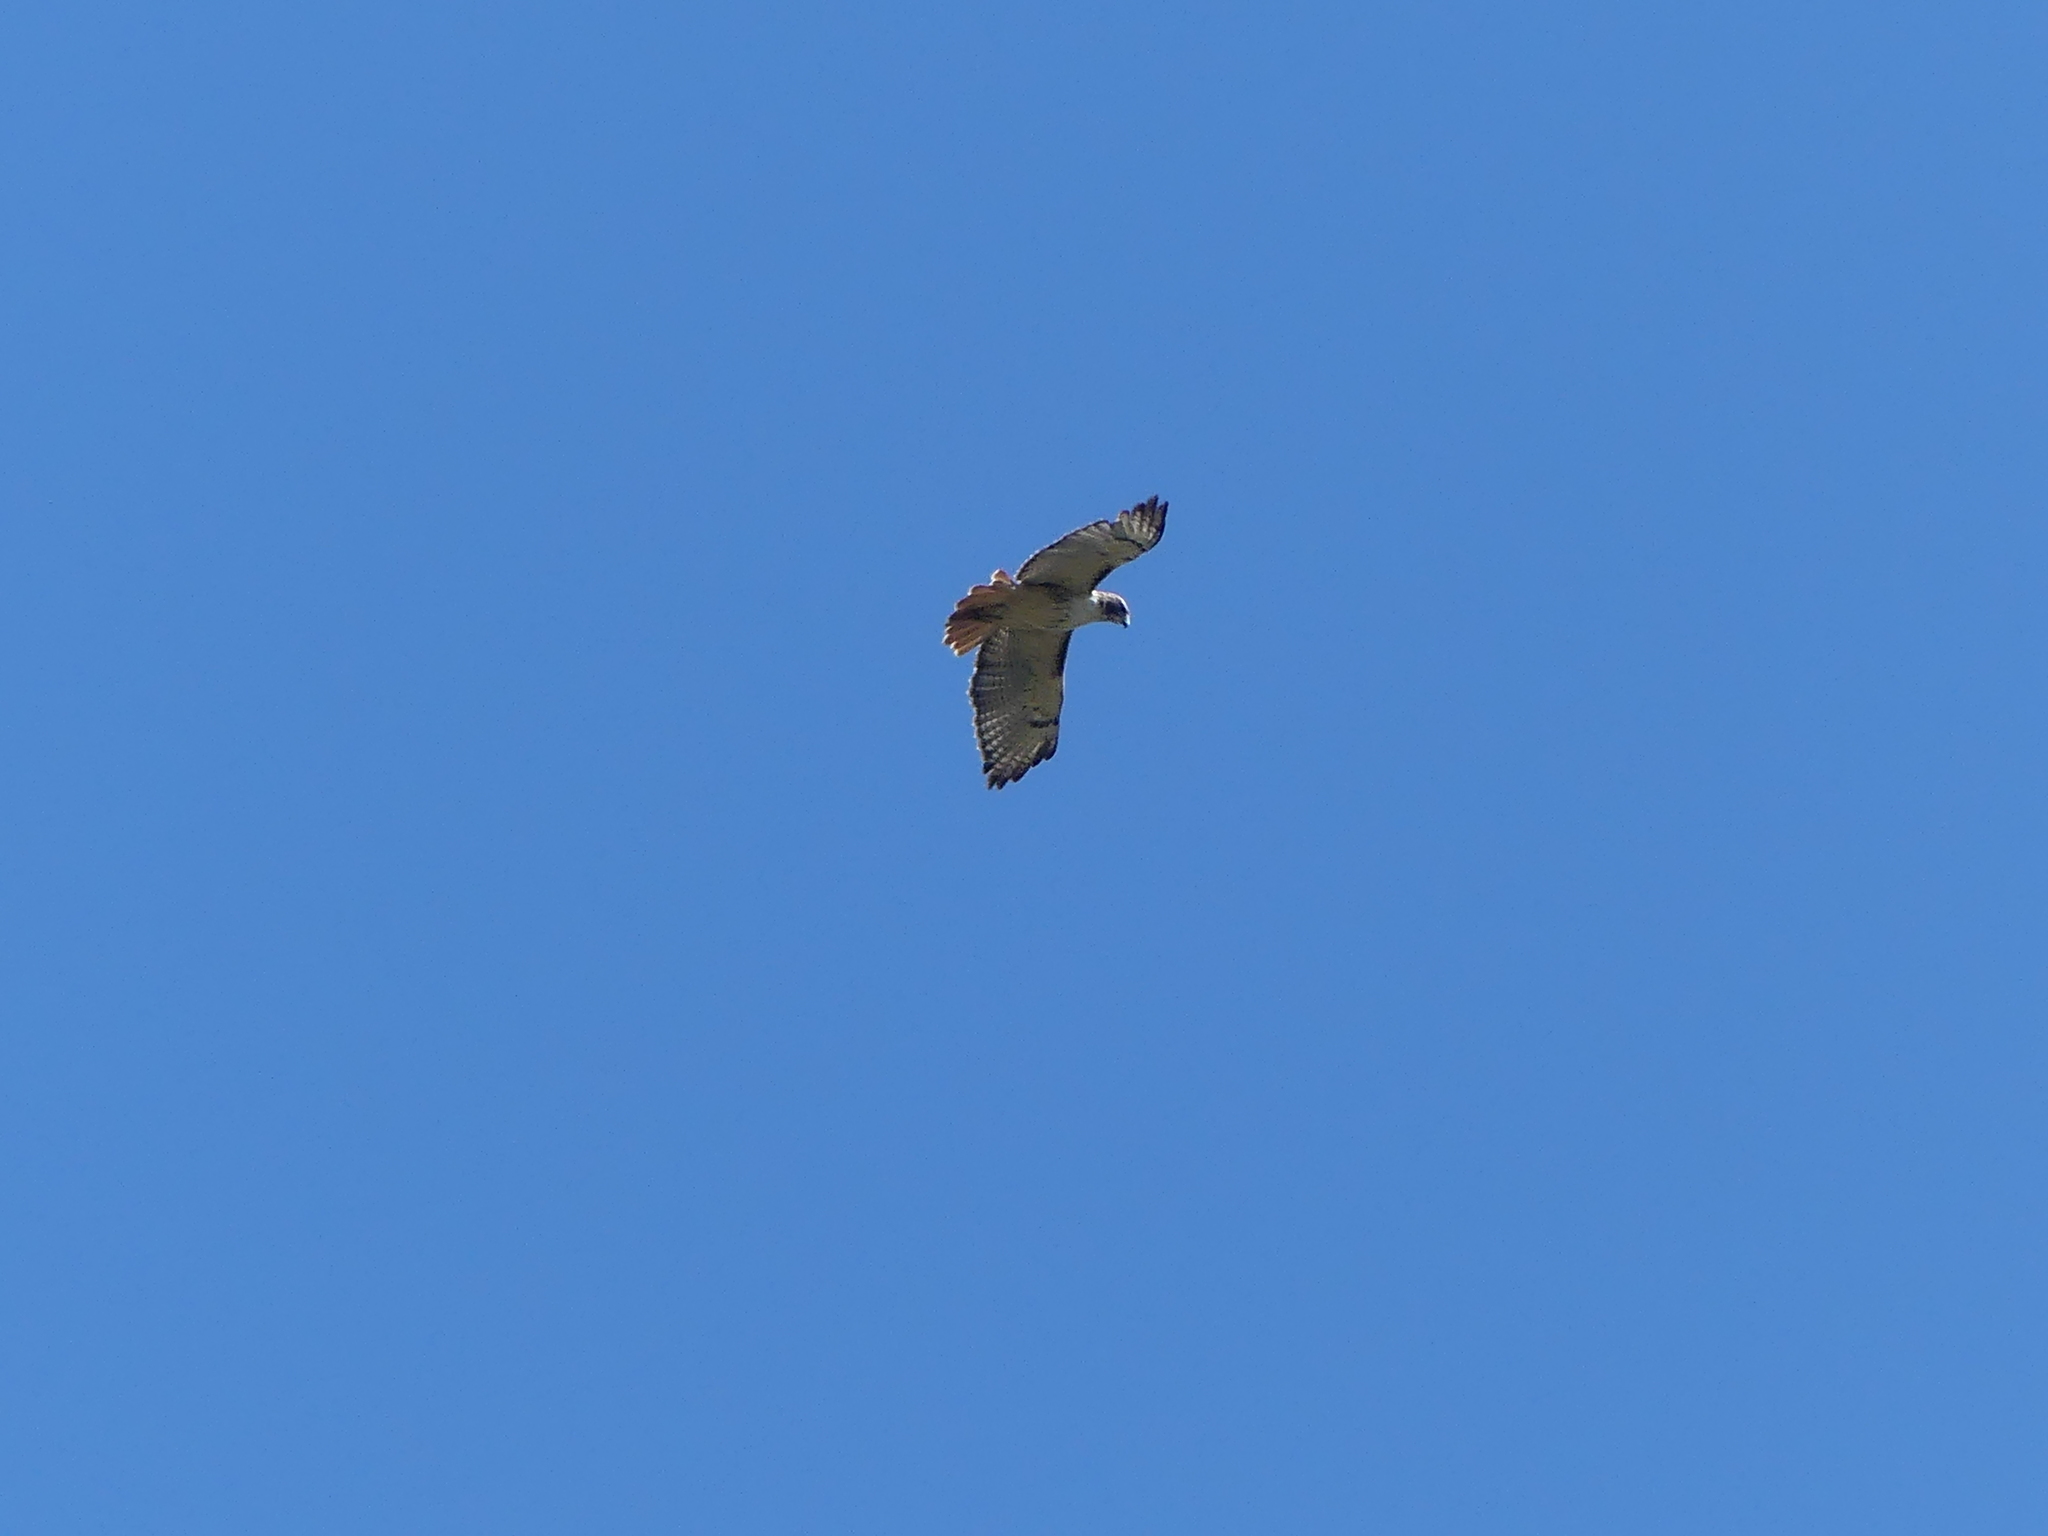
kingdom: Animalia
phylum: Chordata
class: Aves
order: Accipitriformes
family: Accipitridae
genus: Buteo
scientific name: Buteo jamaicensis
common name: Red-tailed hawk
